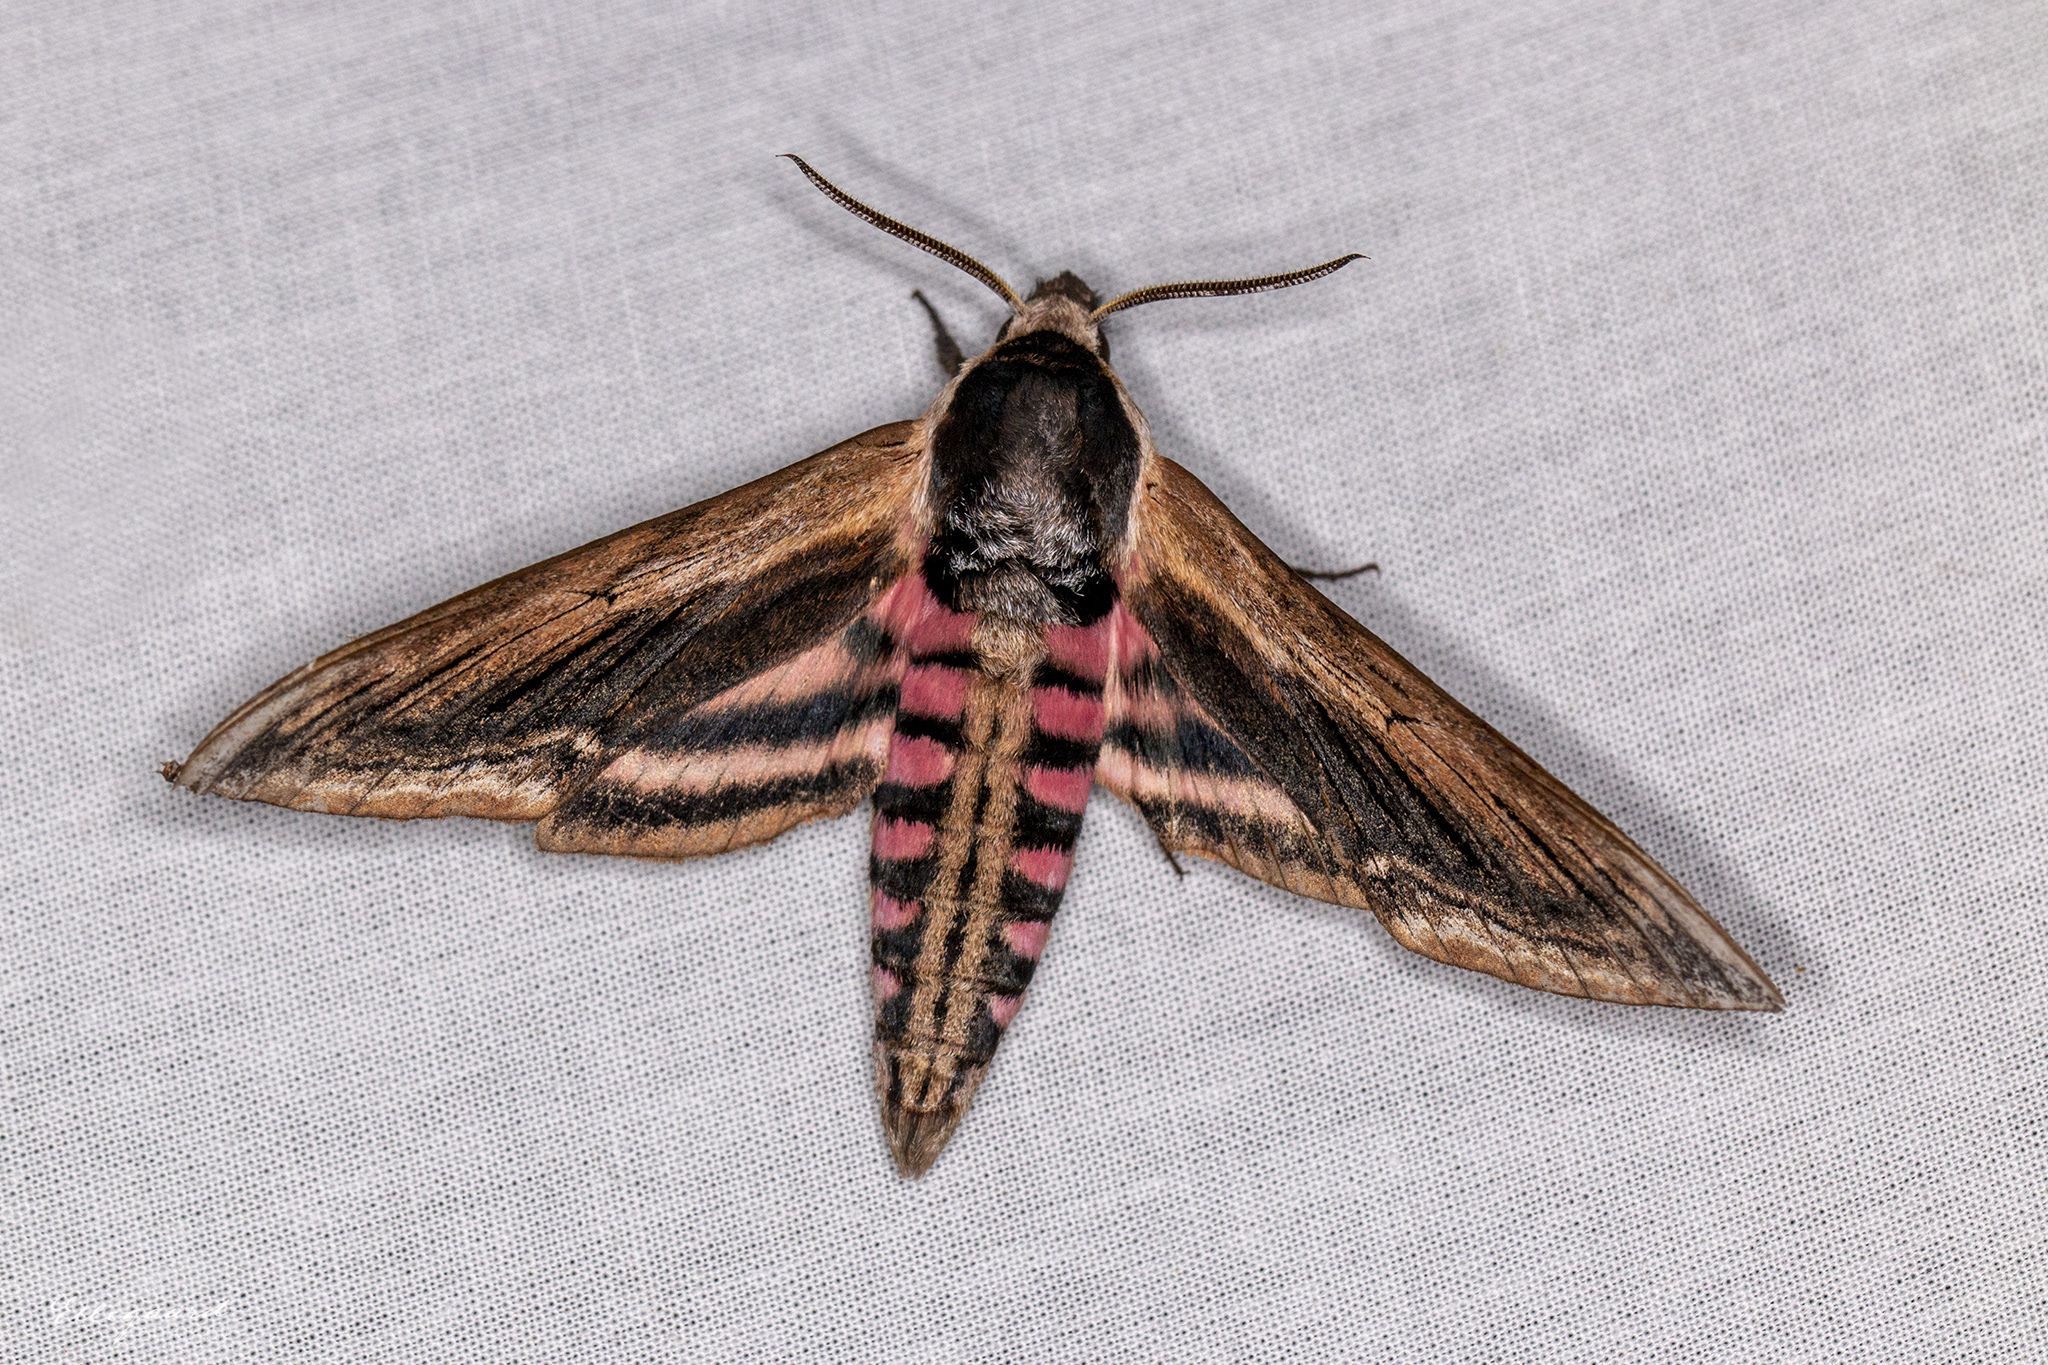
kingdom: Animalia
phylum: Arthropoda
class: Insecta
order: Lepidoptera
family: Sphingidae
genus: Sphinx
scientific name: Sphinx ligustri
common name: Privet hawk-moth
